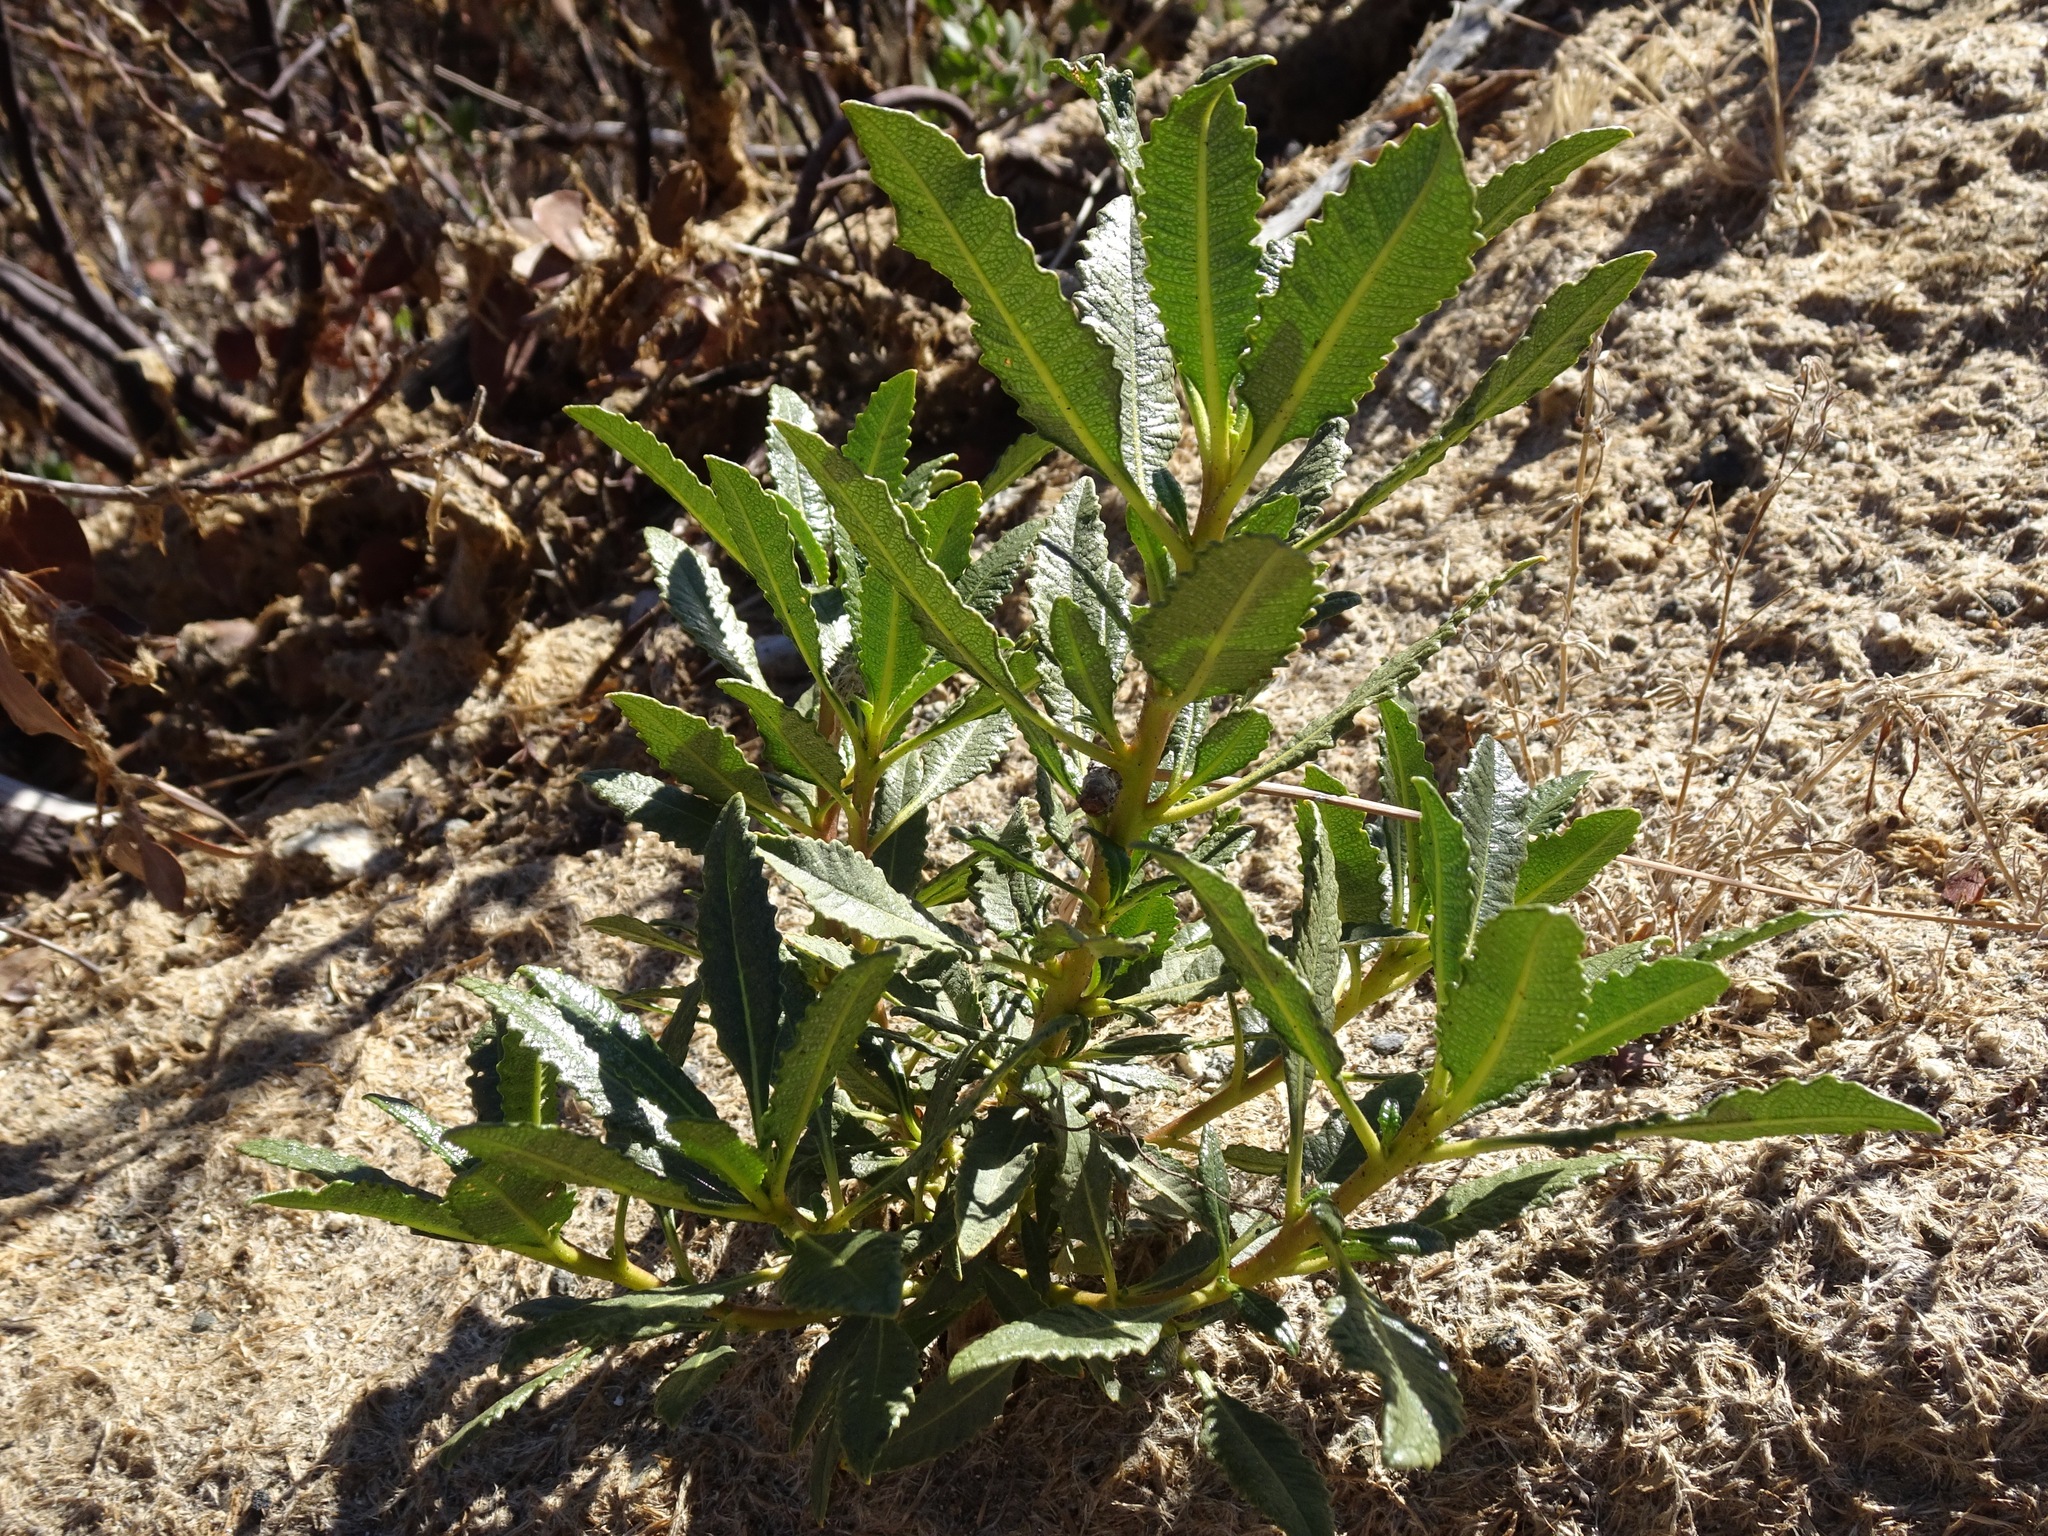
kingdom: Plantae
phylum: Tracheophyta
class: Magnoliopsida
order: Boraginales
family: Namaceae
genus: Eriodictyon
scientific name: Eriodictyon trichocalyx
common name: Hairy yerba-santa
